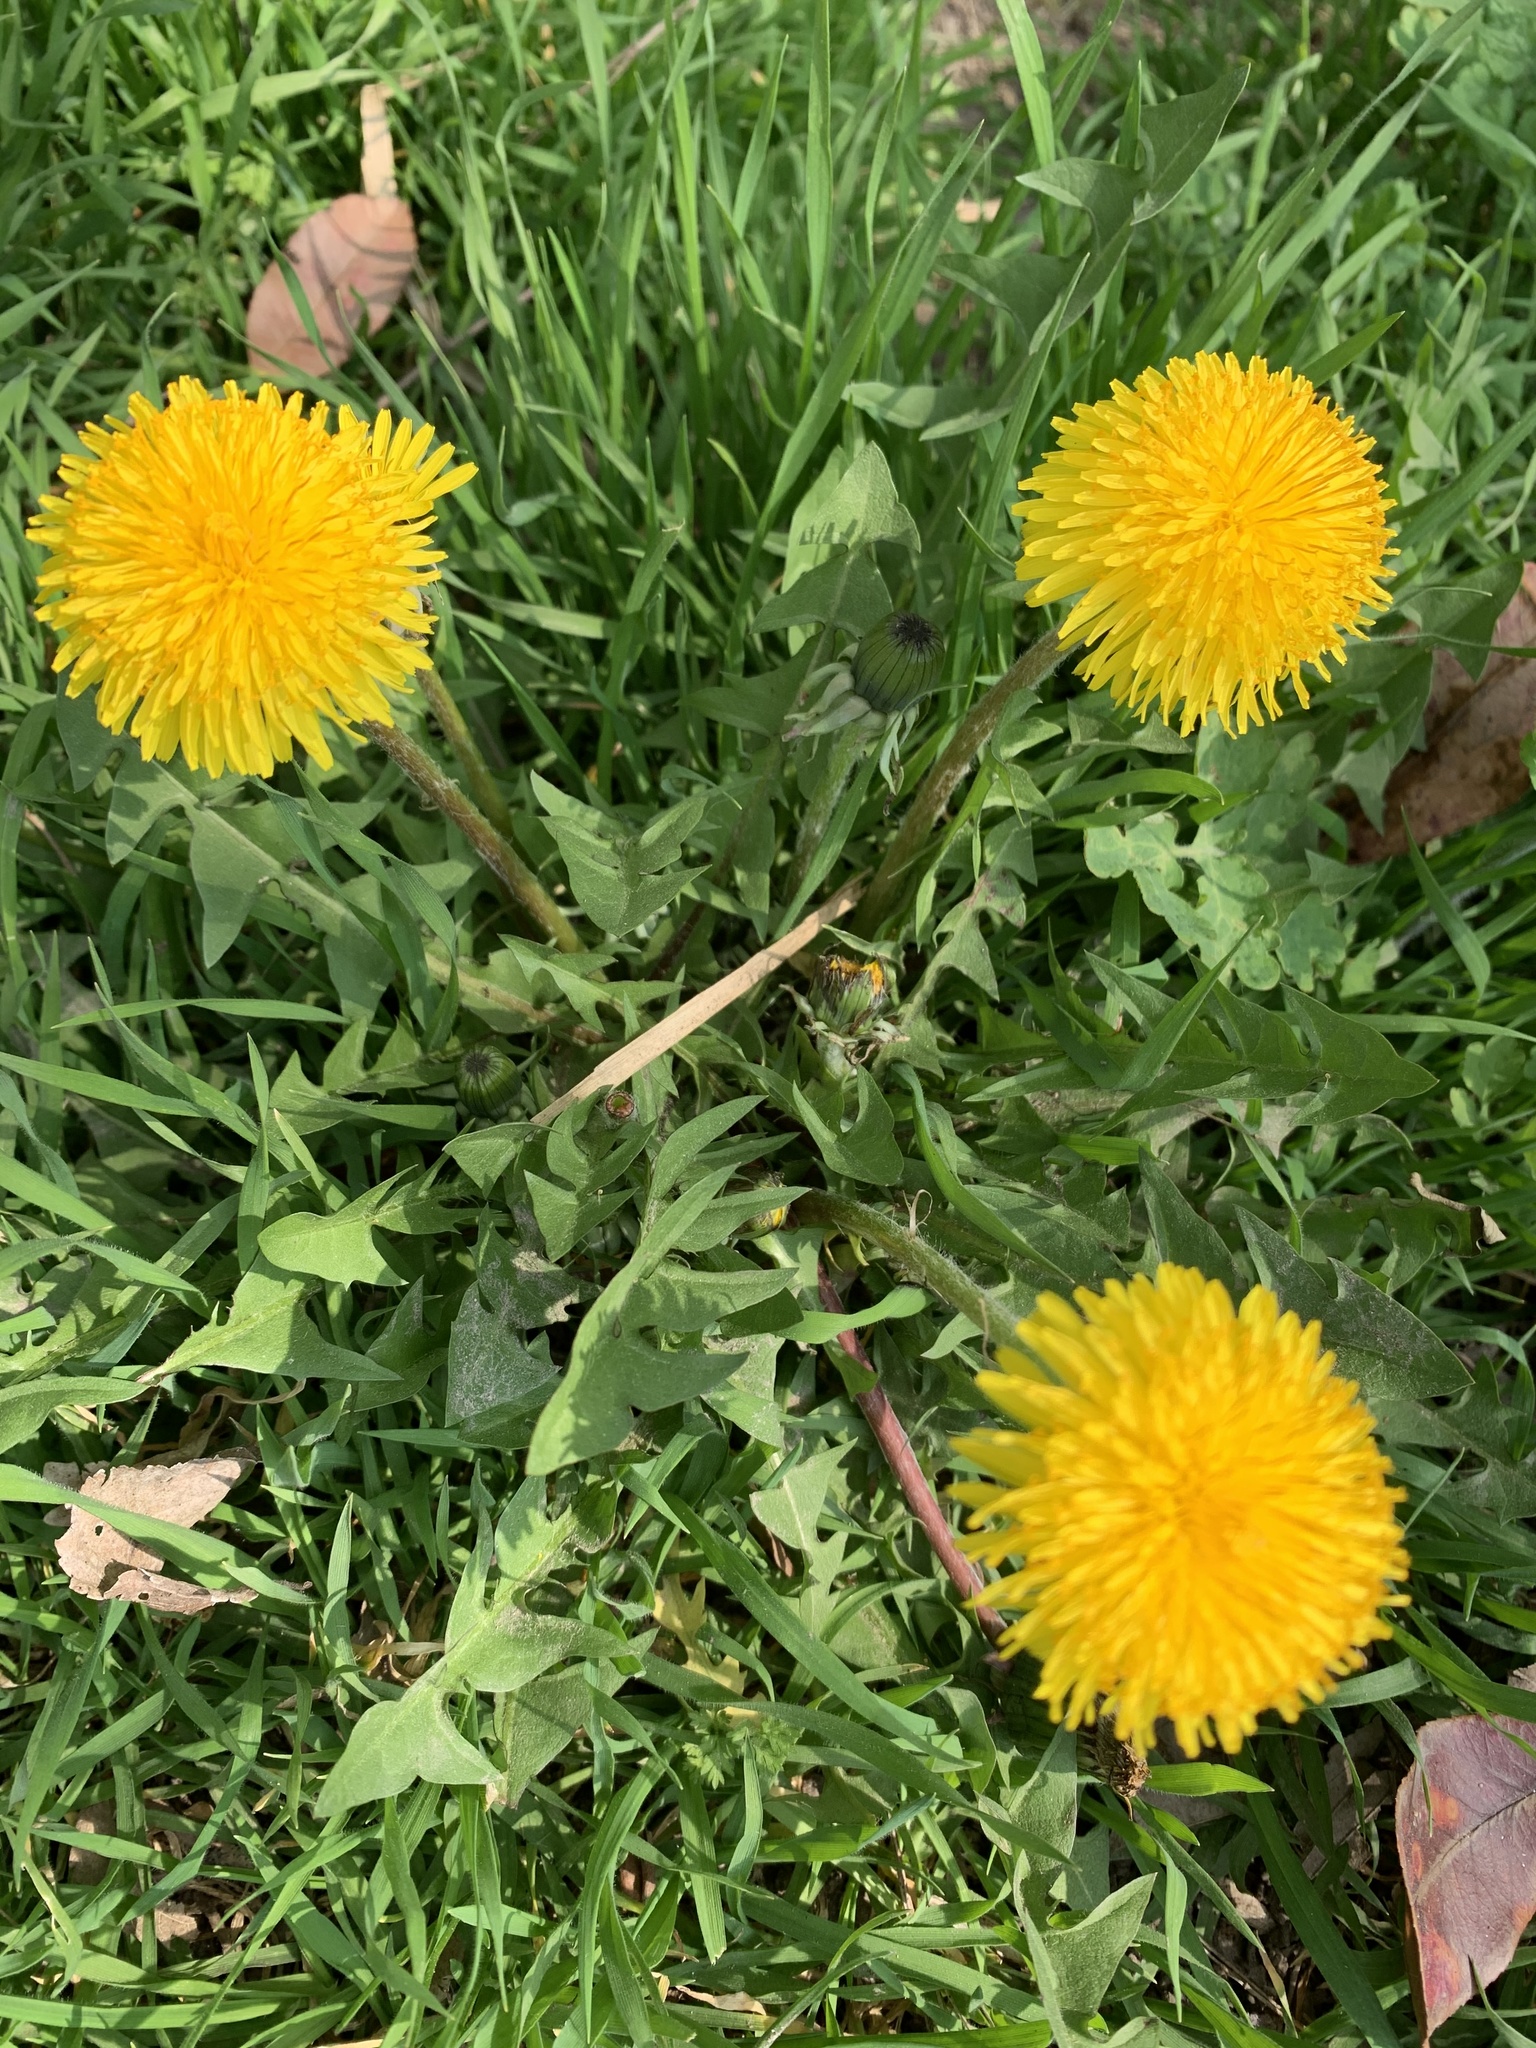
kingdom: Plantae
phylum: Tracheophyta
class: Magnoliopsida
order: Asterales
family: Asteraceae
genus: Taraxacum
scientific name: Taraxacum
